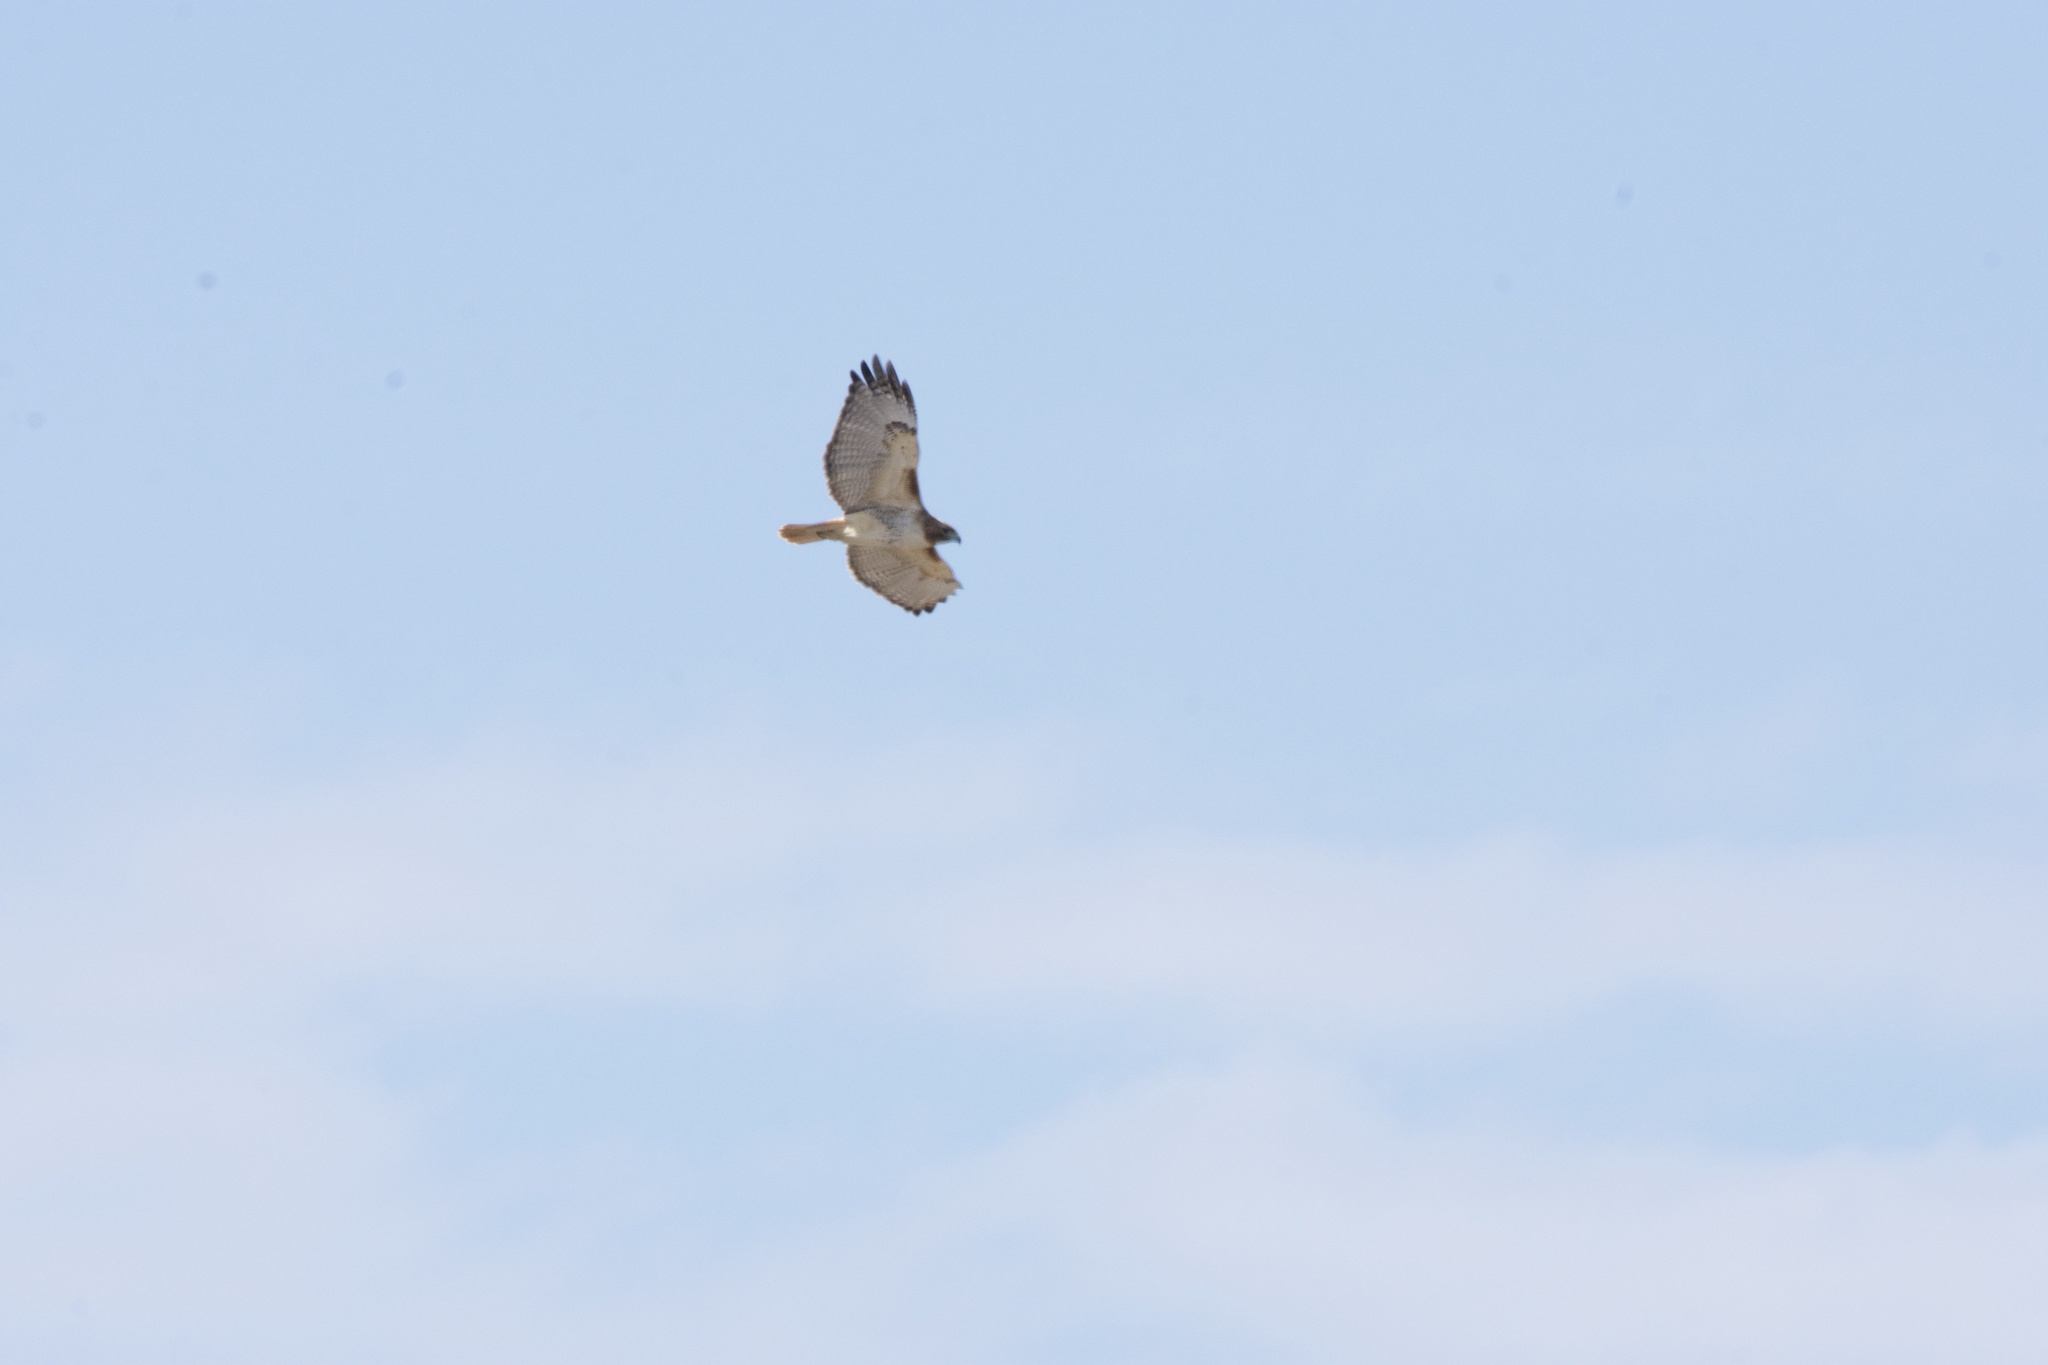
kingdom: Animalia
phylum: Chordata
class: Aves
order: Accipitriformes
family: Accipitridae
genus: Buteo
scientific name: Buteo jamaicensis
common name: Red-tailed hawk
